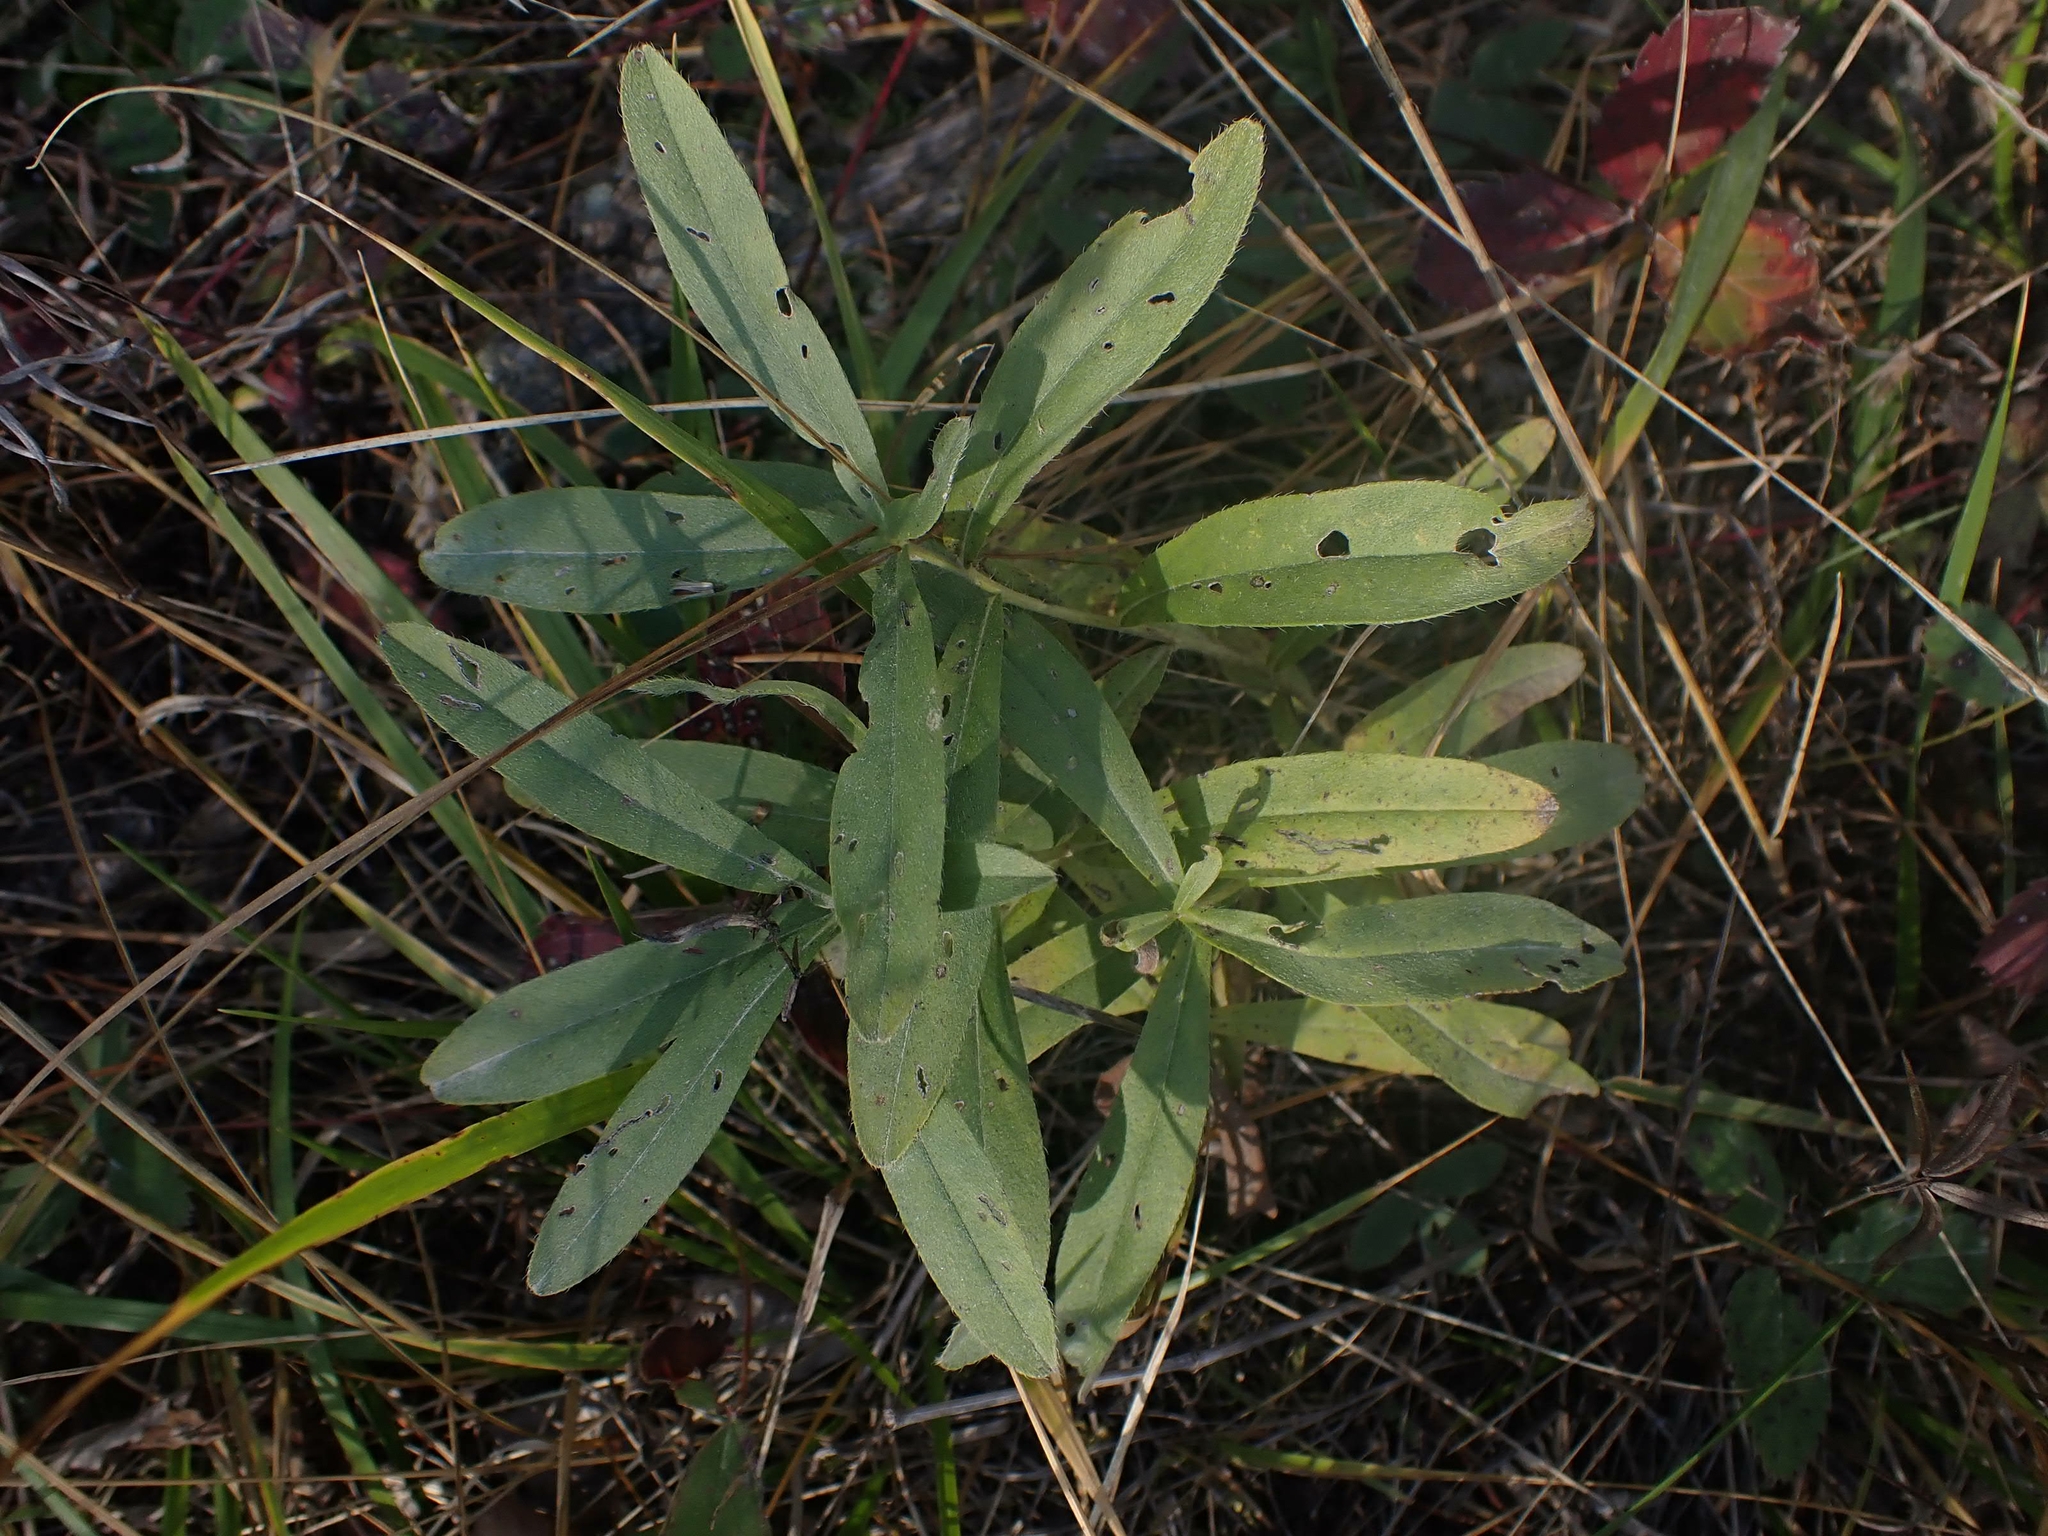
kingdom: Plantae
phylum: Tracheophyta
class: Magnoliopsida
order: Boraginales
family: Boraginaceae
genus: Lithospermum
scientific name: Lithospermum canescens
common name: Hoary puccoon
